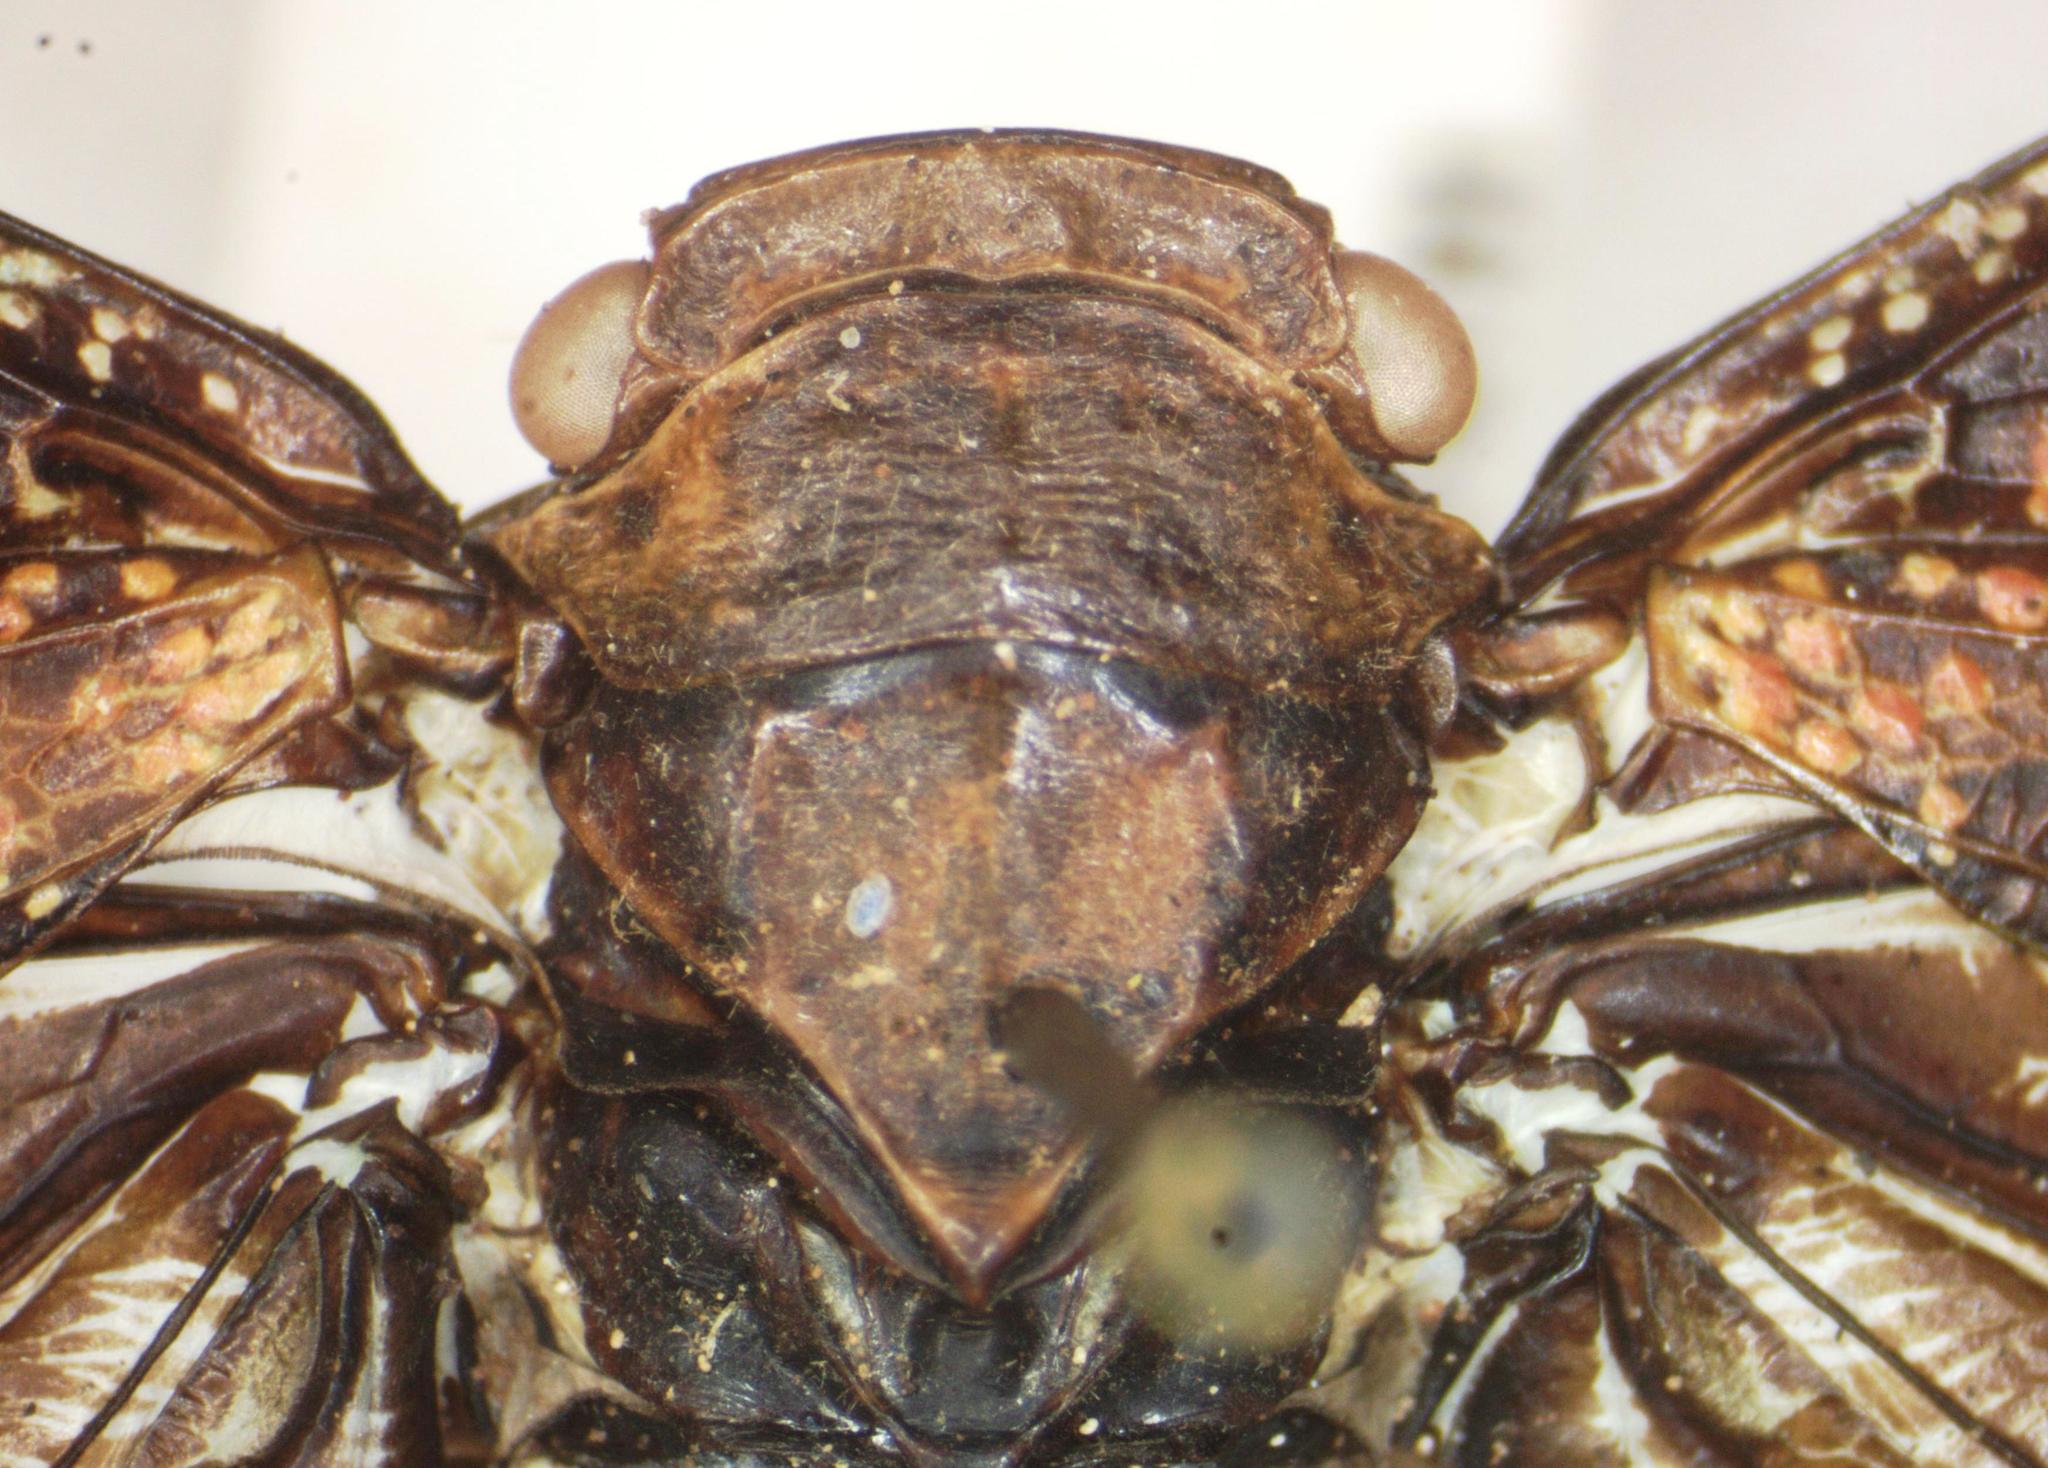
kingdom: Animalia
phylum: Arthropoda
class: Insecta
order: Hemiptera
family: Fulgoridae
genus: Alaruasa
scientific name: Alaruasa
